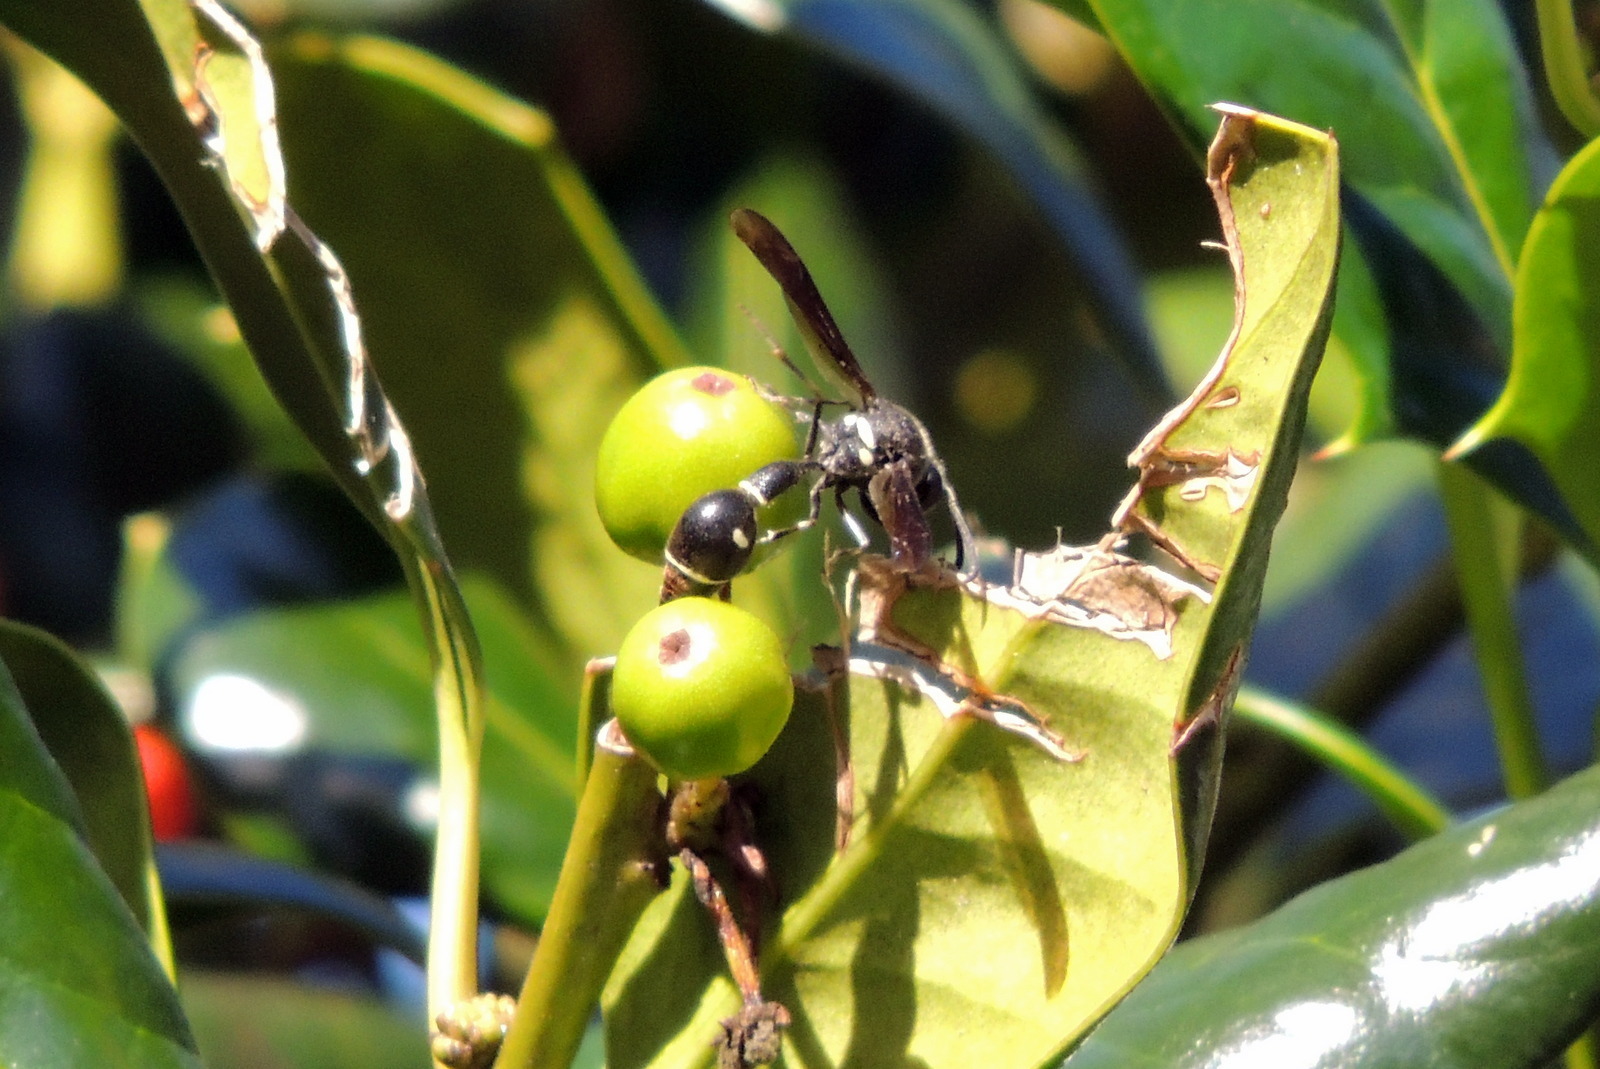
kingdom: Animalia
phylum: Arthropoda
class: Insecta
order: Hymenoptera
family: Vespidae
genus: Eumenes
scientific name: Eumenes fraternus
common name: Fraternal potter wasp
